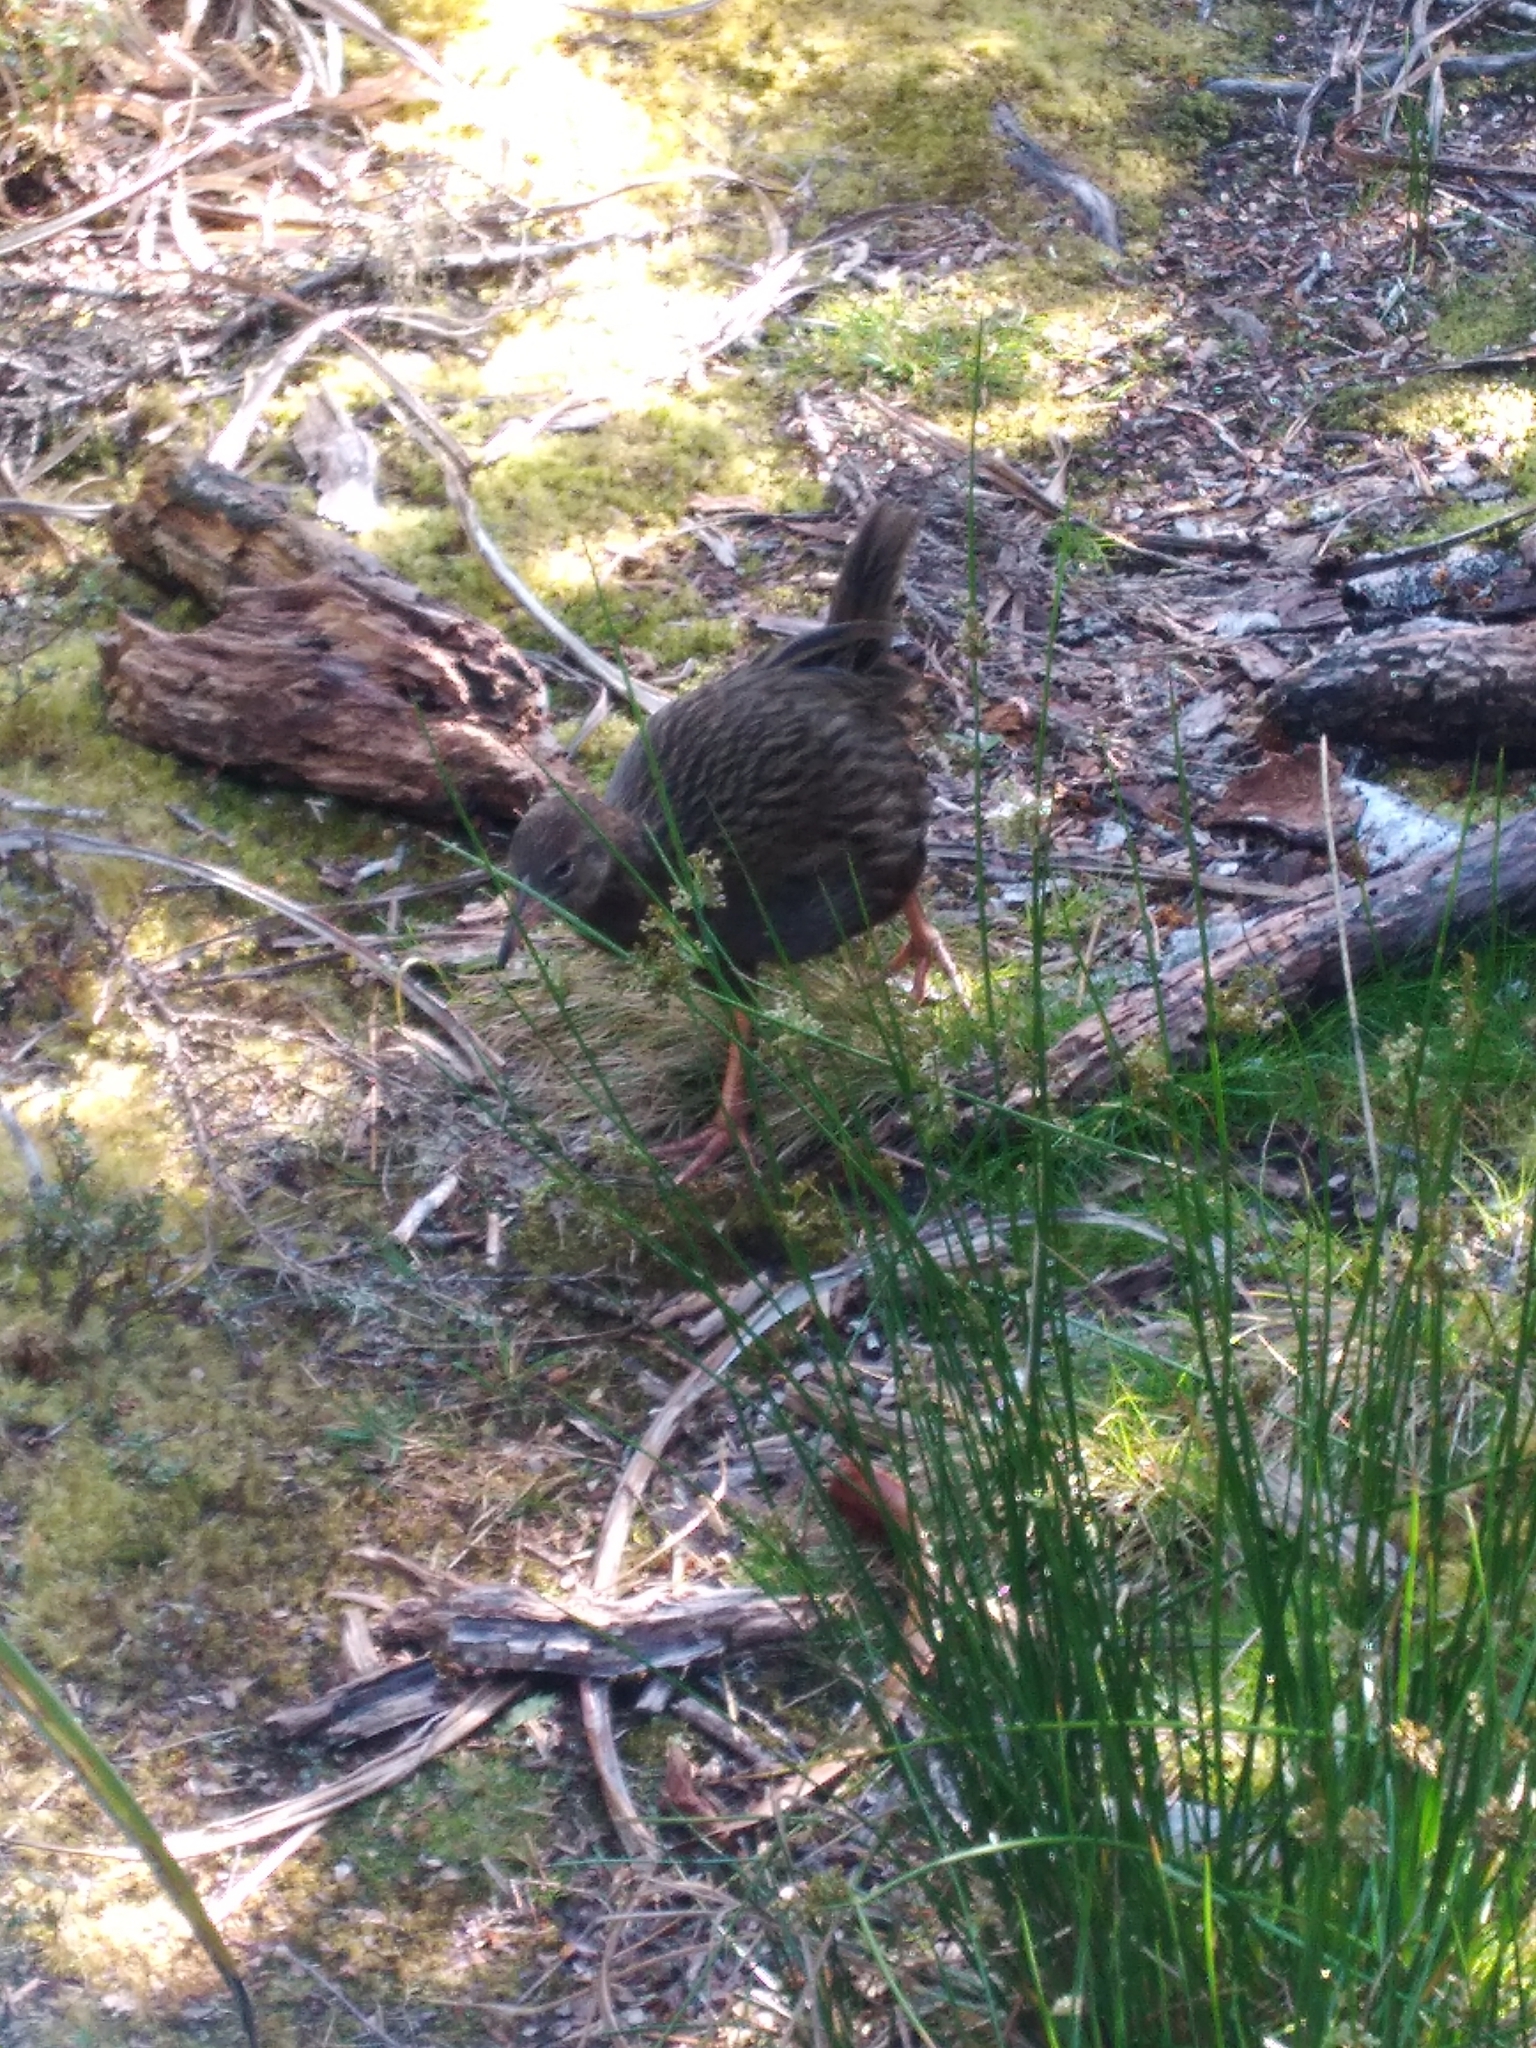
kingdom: Animalia
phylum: Chordata
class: Aves
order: Gruiformes
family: Rallidae
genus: Gallirallus
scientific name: Gallirallus australis
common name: Weka
